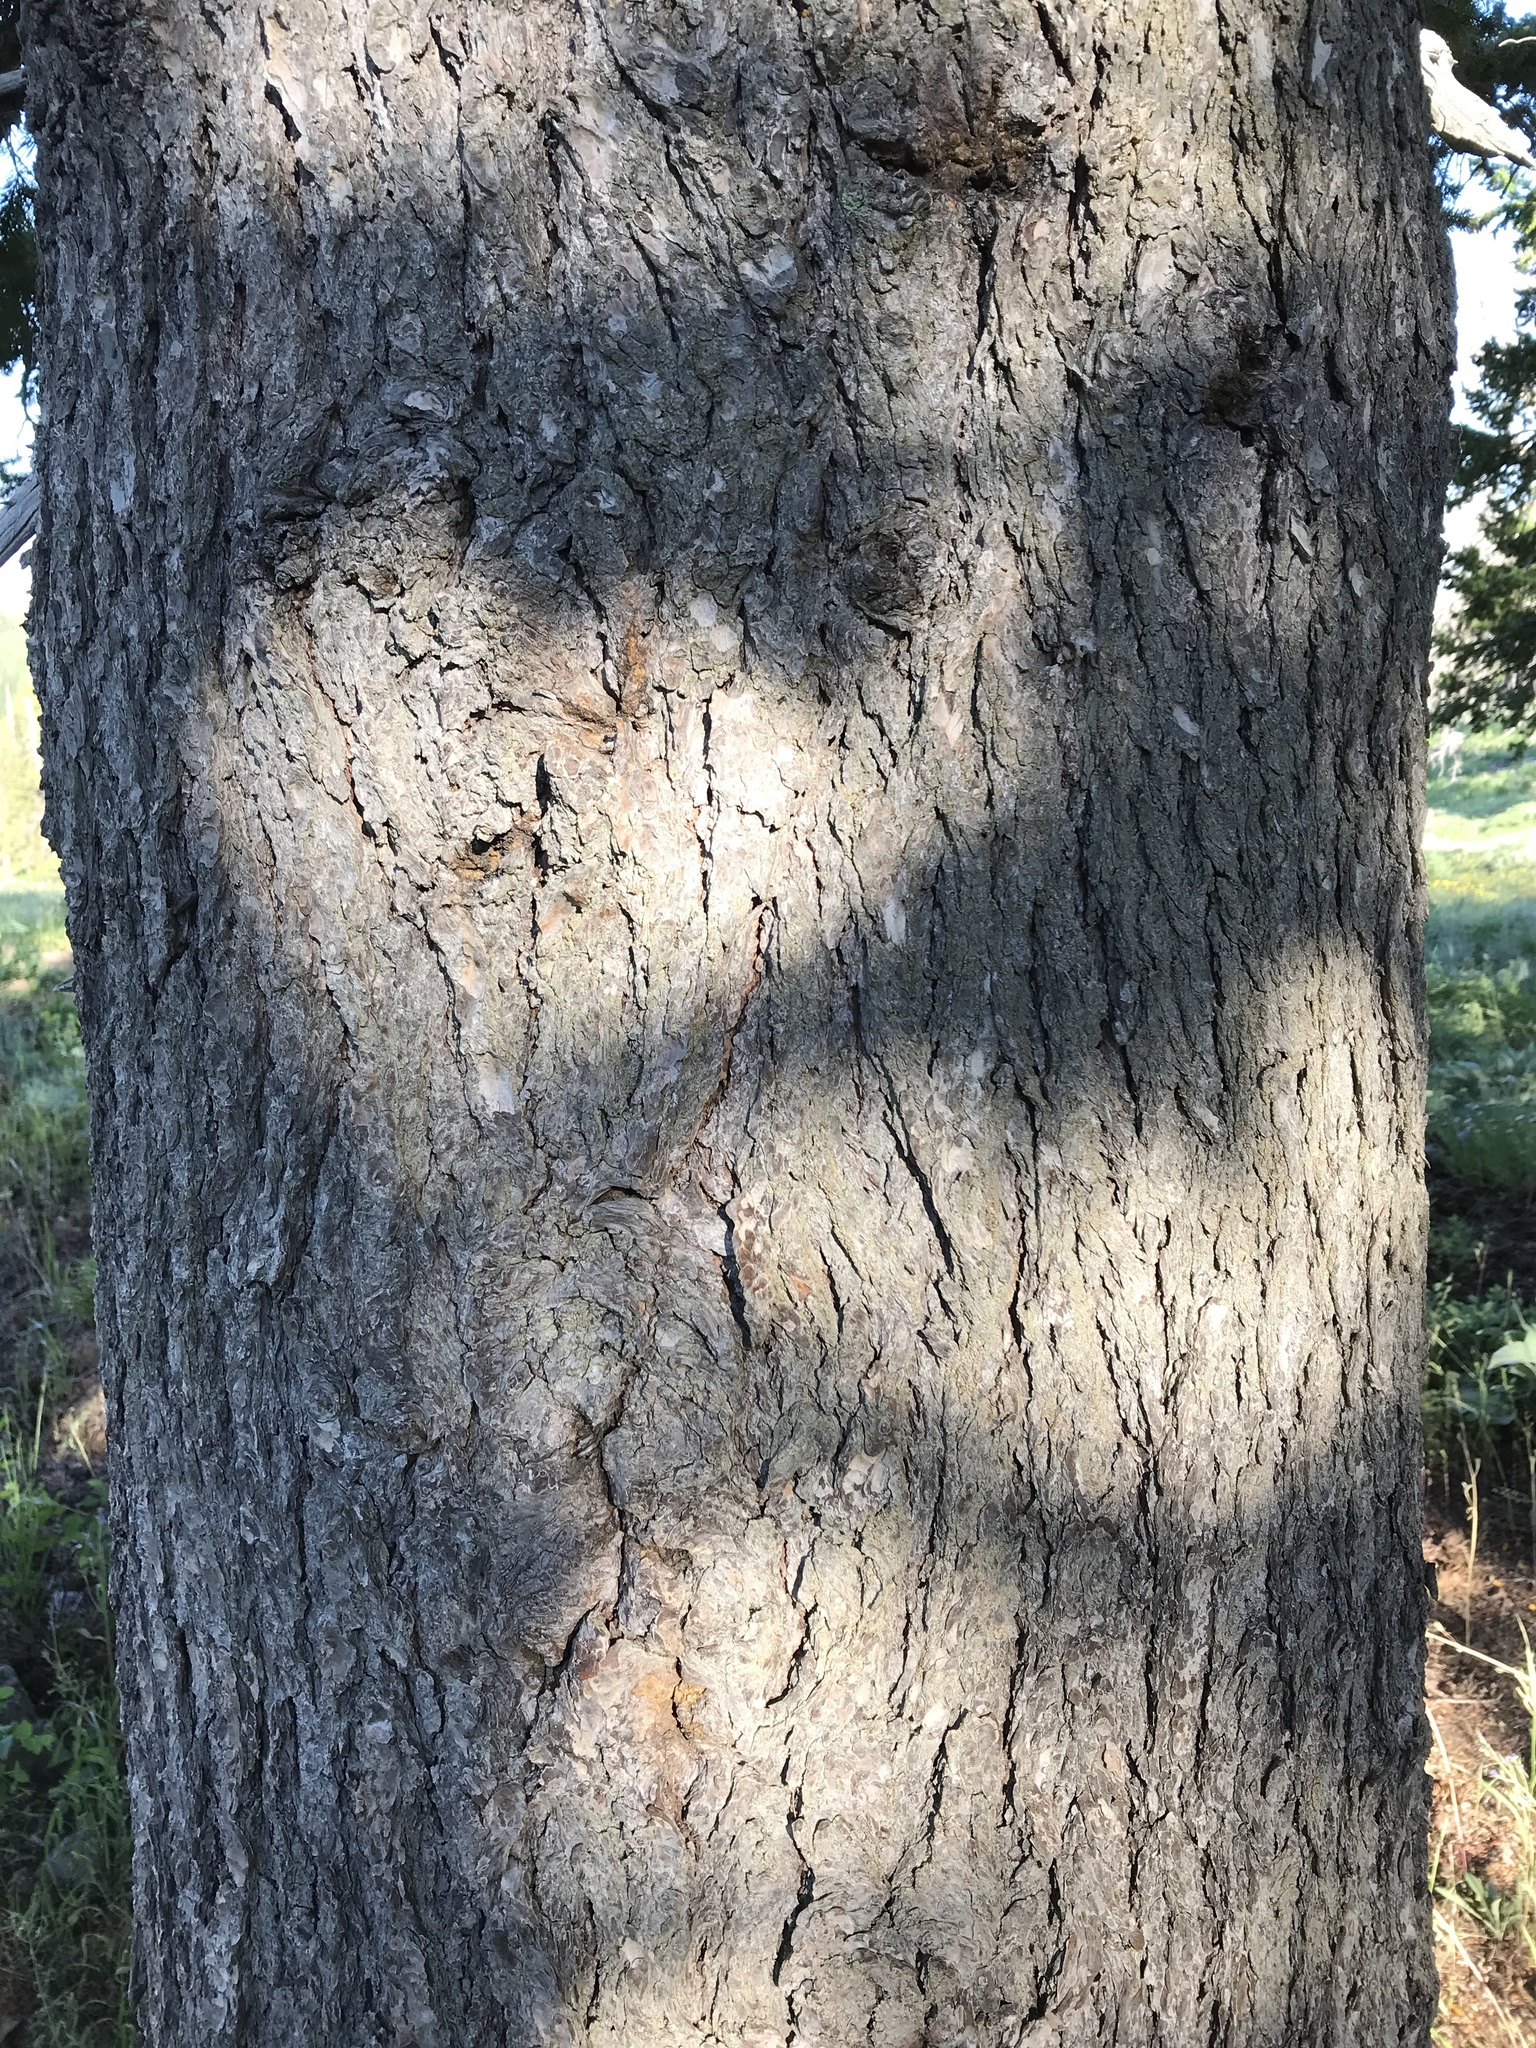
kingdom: Plantae
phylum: Tracheophyta
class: Pinopsida
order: Pinales
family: Pinaceae
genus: Pseudotsuga
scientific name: Pseudotsuga menziesii
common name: Douglas fir
